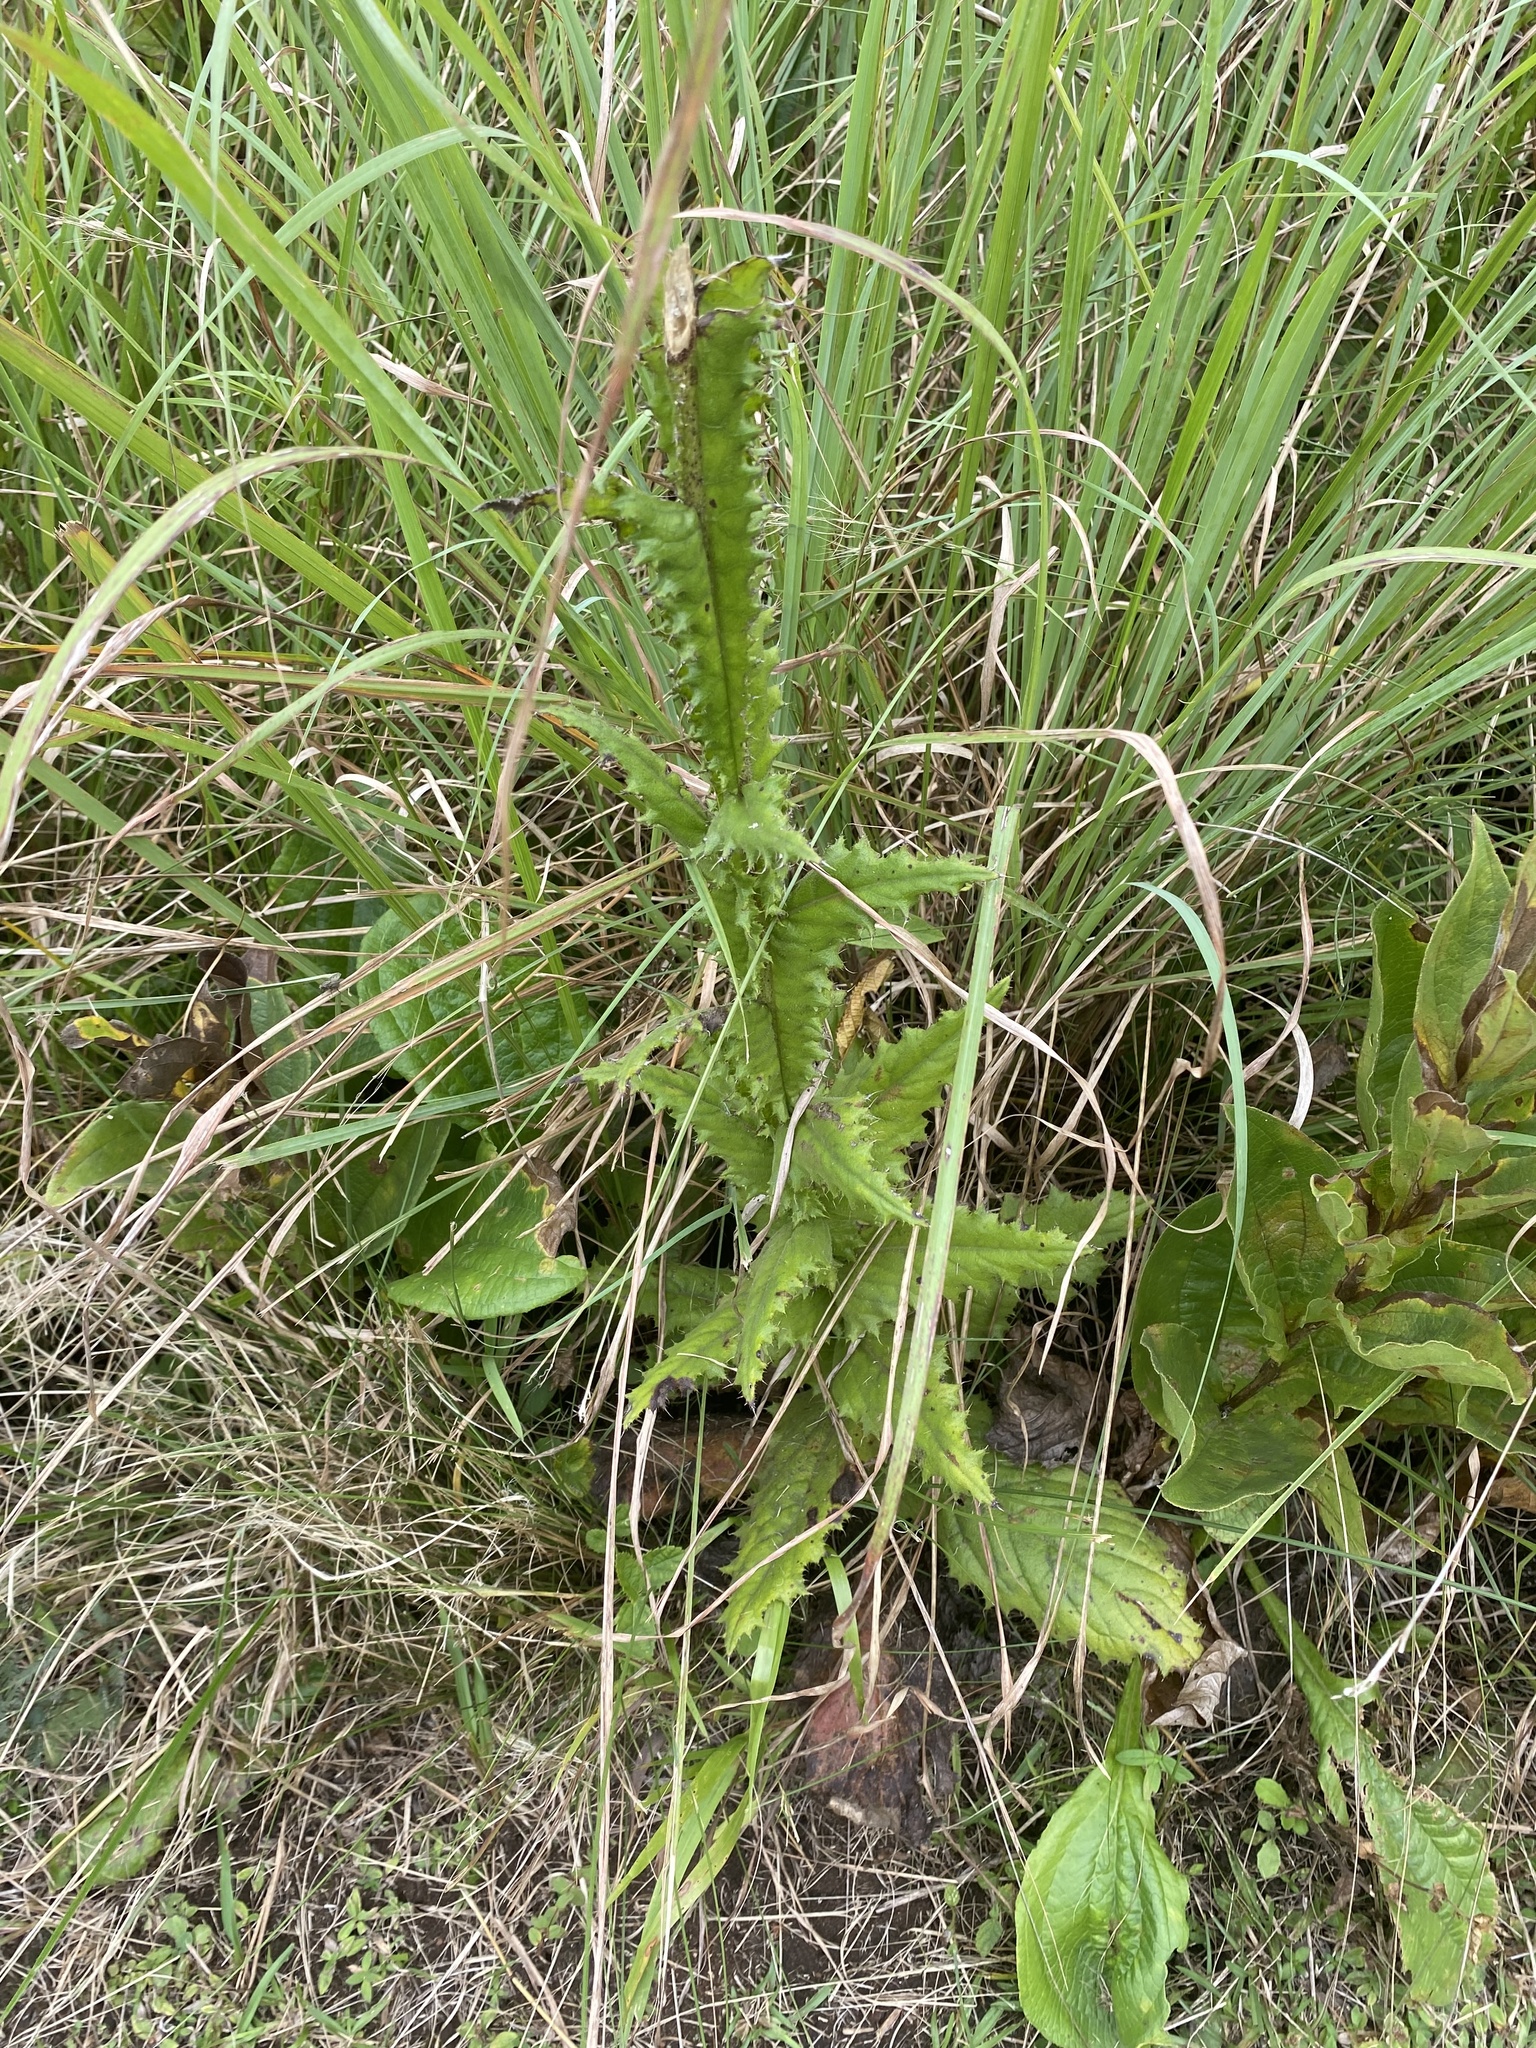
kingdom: Plantae
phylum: Tracheophyta
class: Magnoliopsida
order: Asterales
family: Asteraceae
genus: Berkheya
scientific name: Berkheya rhapontica
